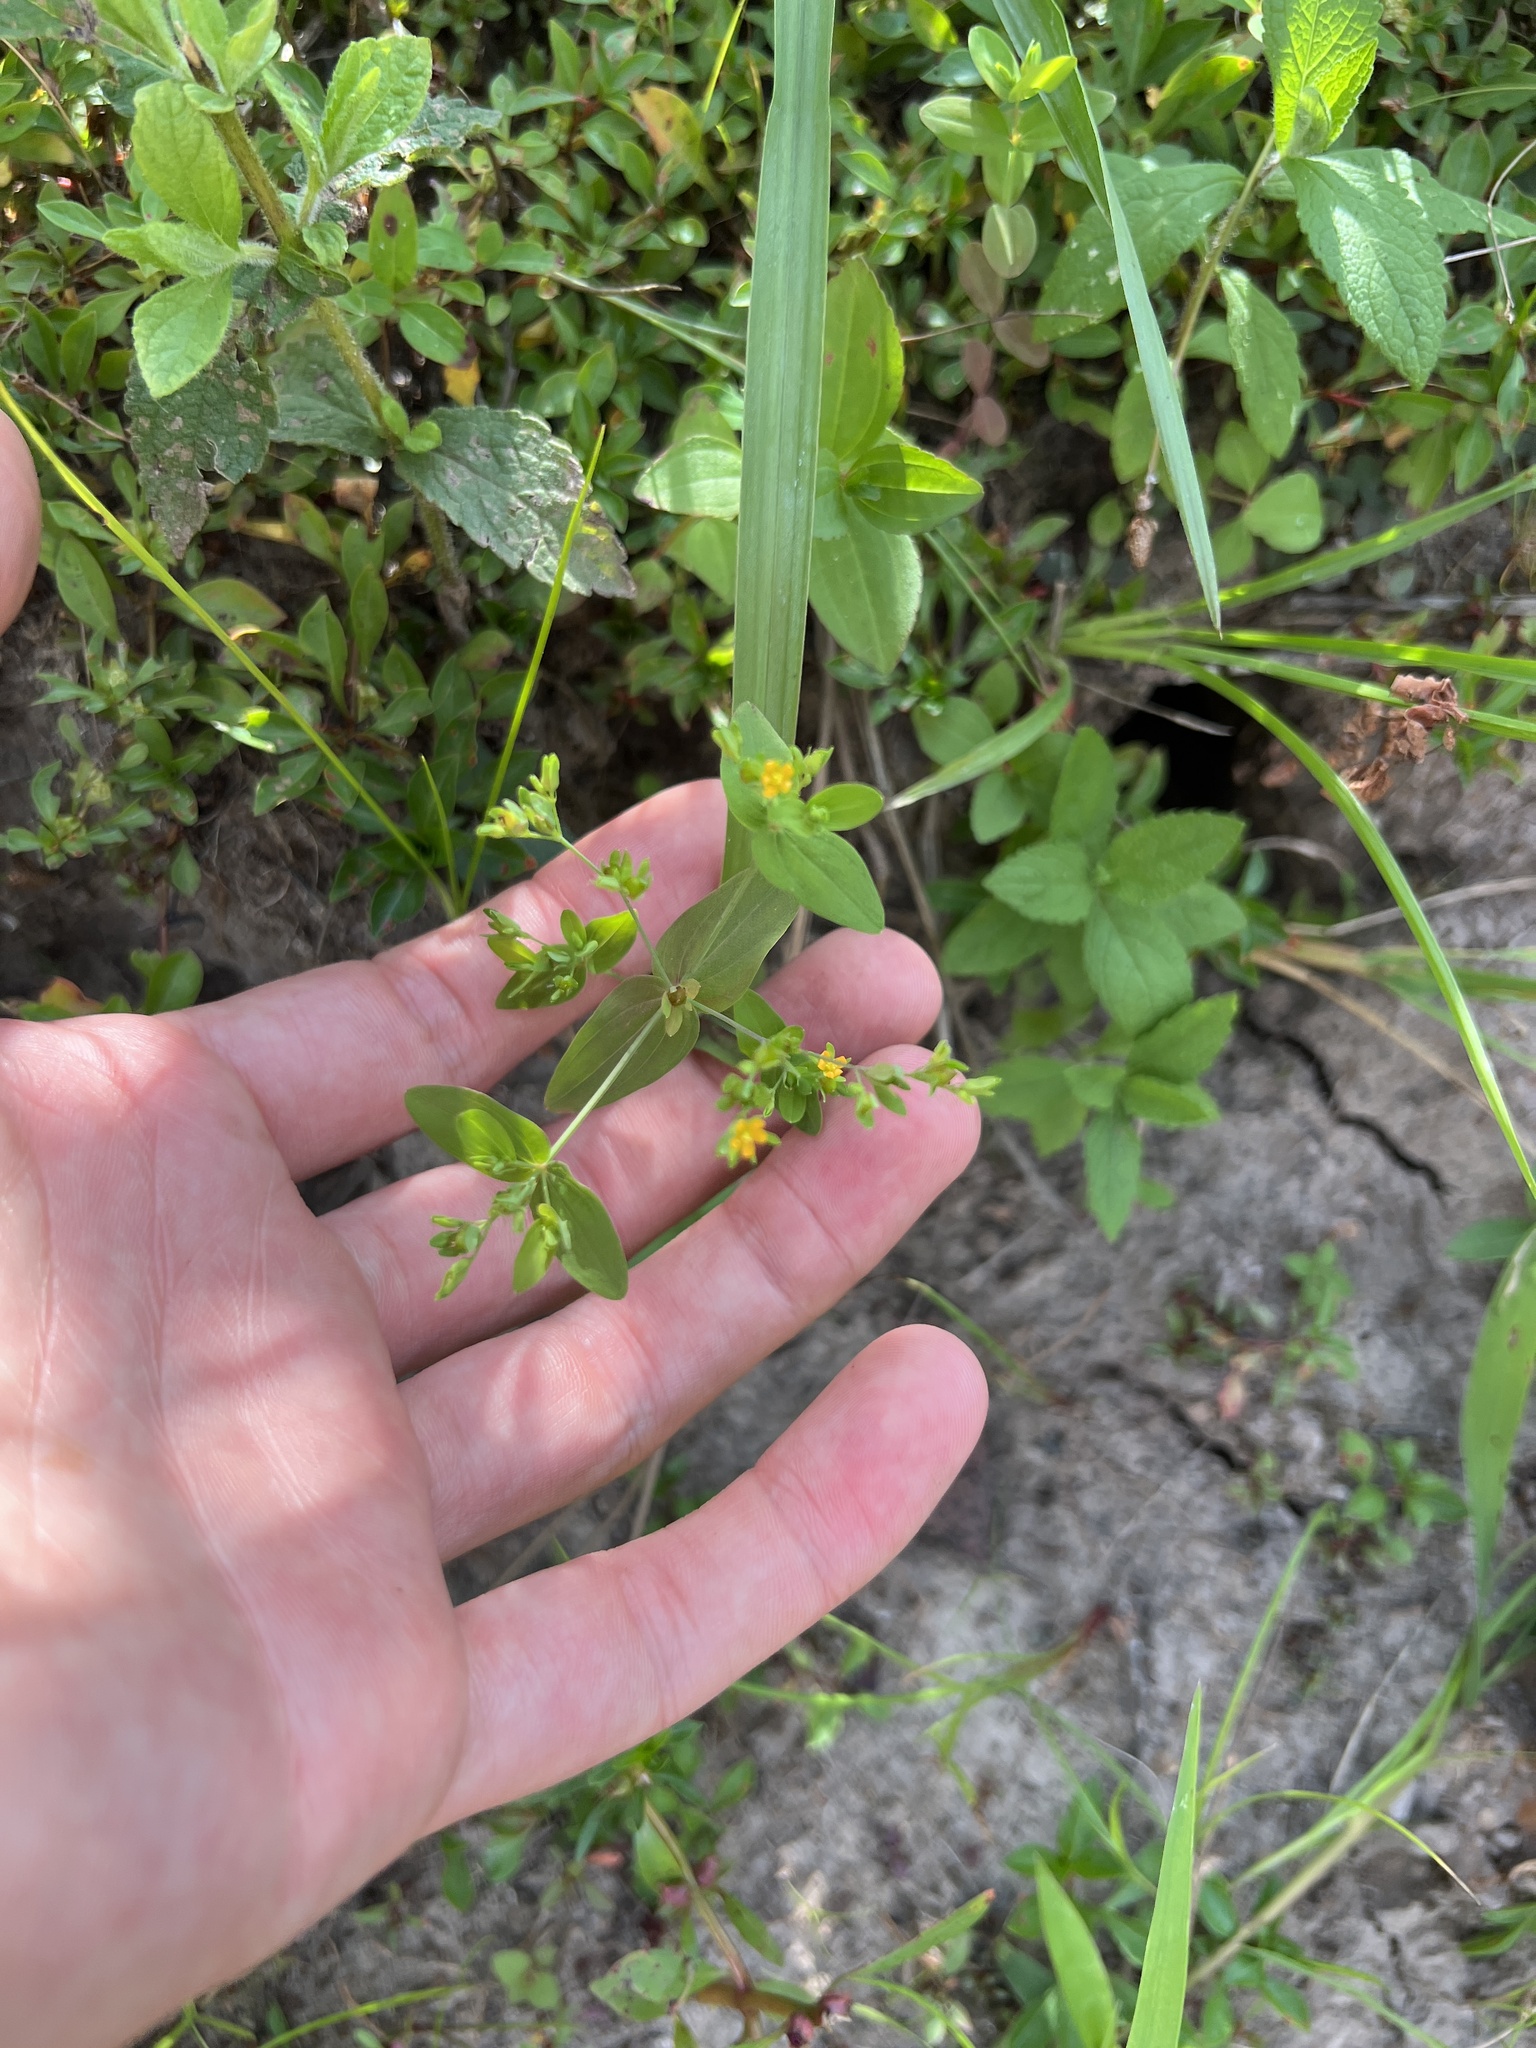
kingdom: Plantae
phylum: Tracheophyta
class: Magnoliopsida
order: Malpighiales
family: Hypericaceae
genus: Hypericum
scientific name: Hypericum mutilum
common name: Dwarf st. john's-wort
